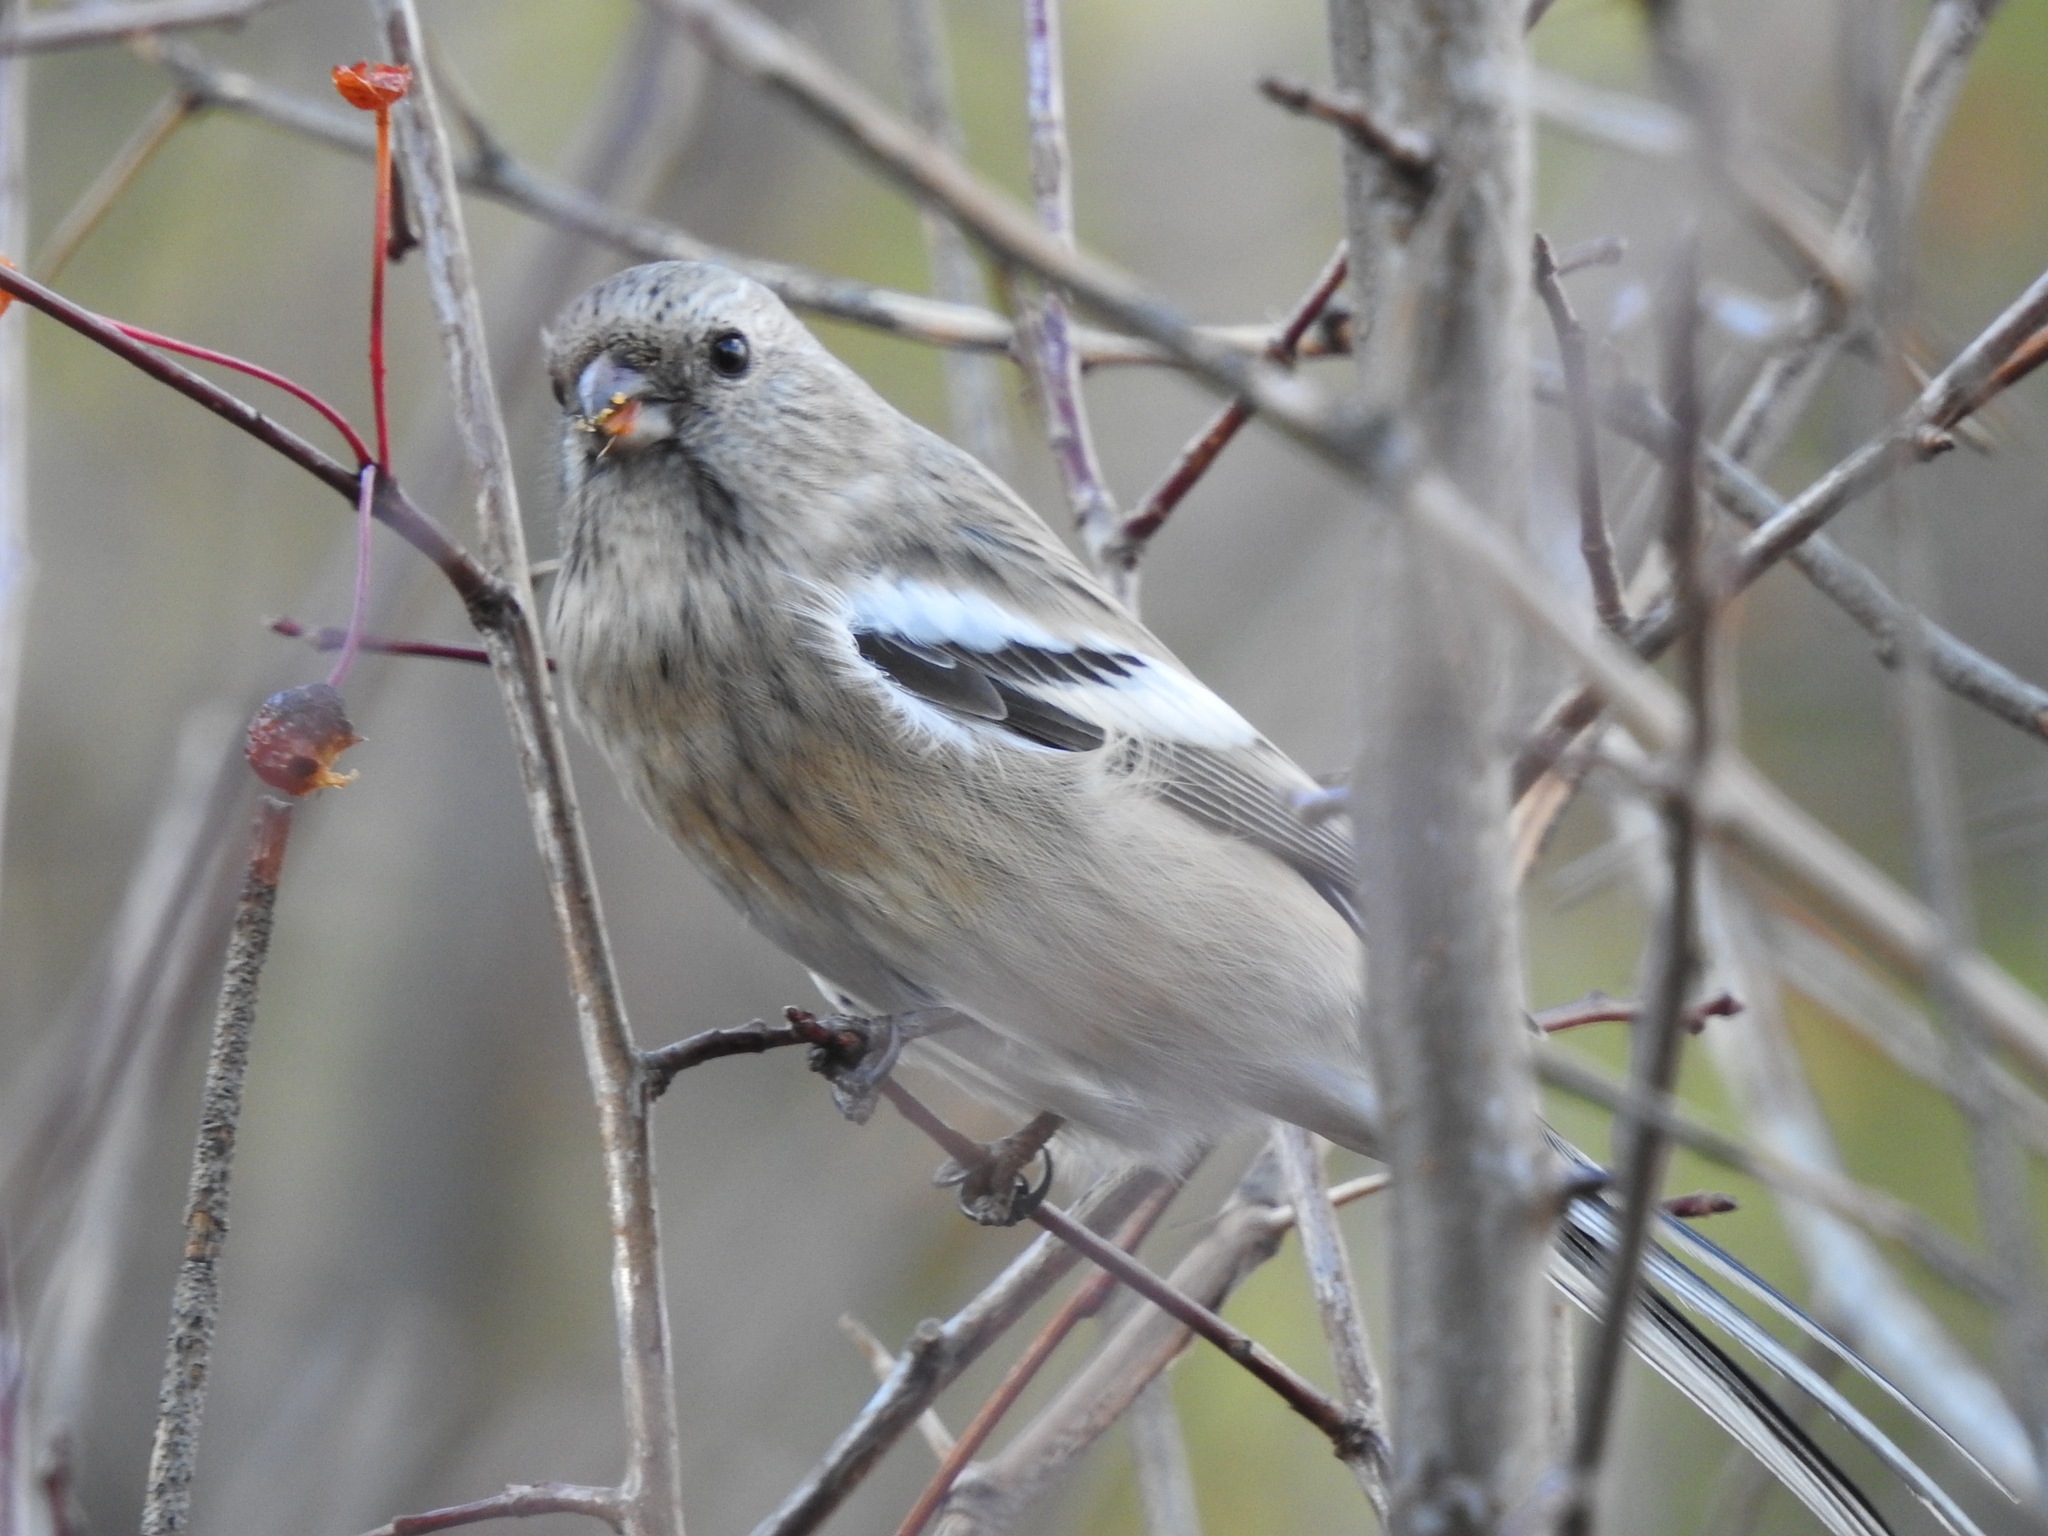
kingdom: Animalia
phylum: Chordata
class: Aves
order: Passeriformes
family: Fringillidae
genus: Carpodacus
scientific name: Carpodacus sibiricus
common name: Long-tailed rosefinch
